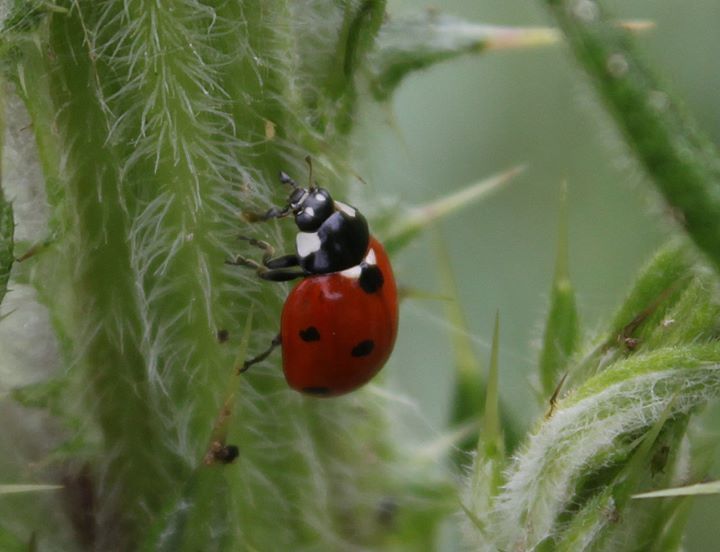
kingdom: Animalia
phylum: Arthropoda
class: Insecta
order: Coleoptera
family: Coccinellidae
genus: Coccinella
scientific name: Coccinella septempunctata
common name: Sevenspotted lady beetle
